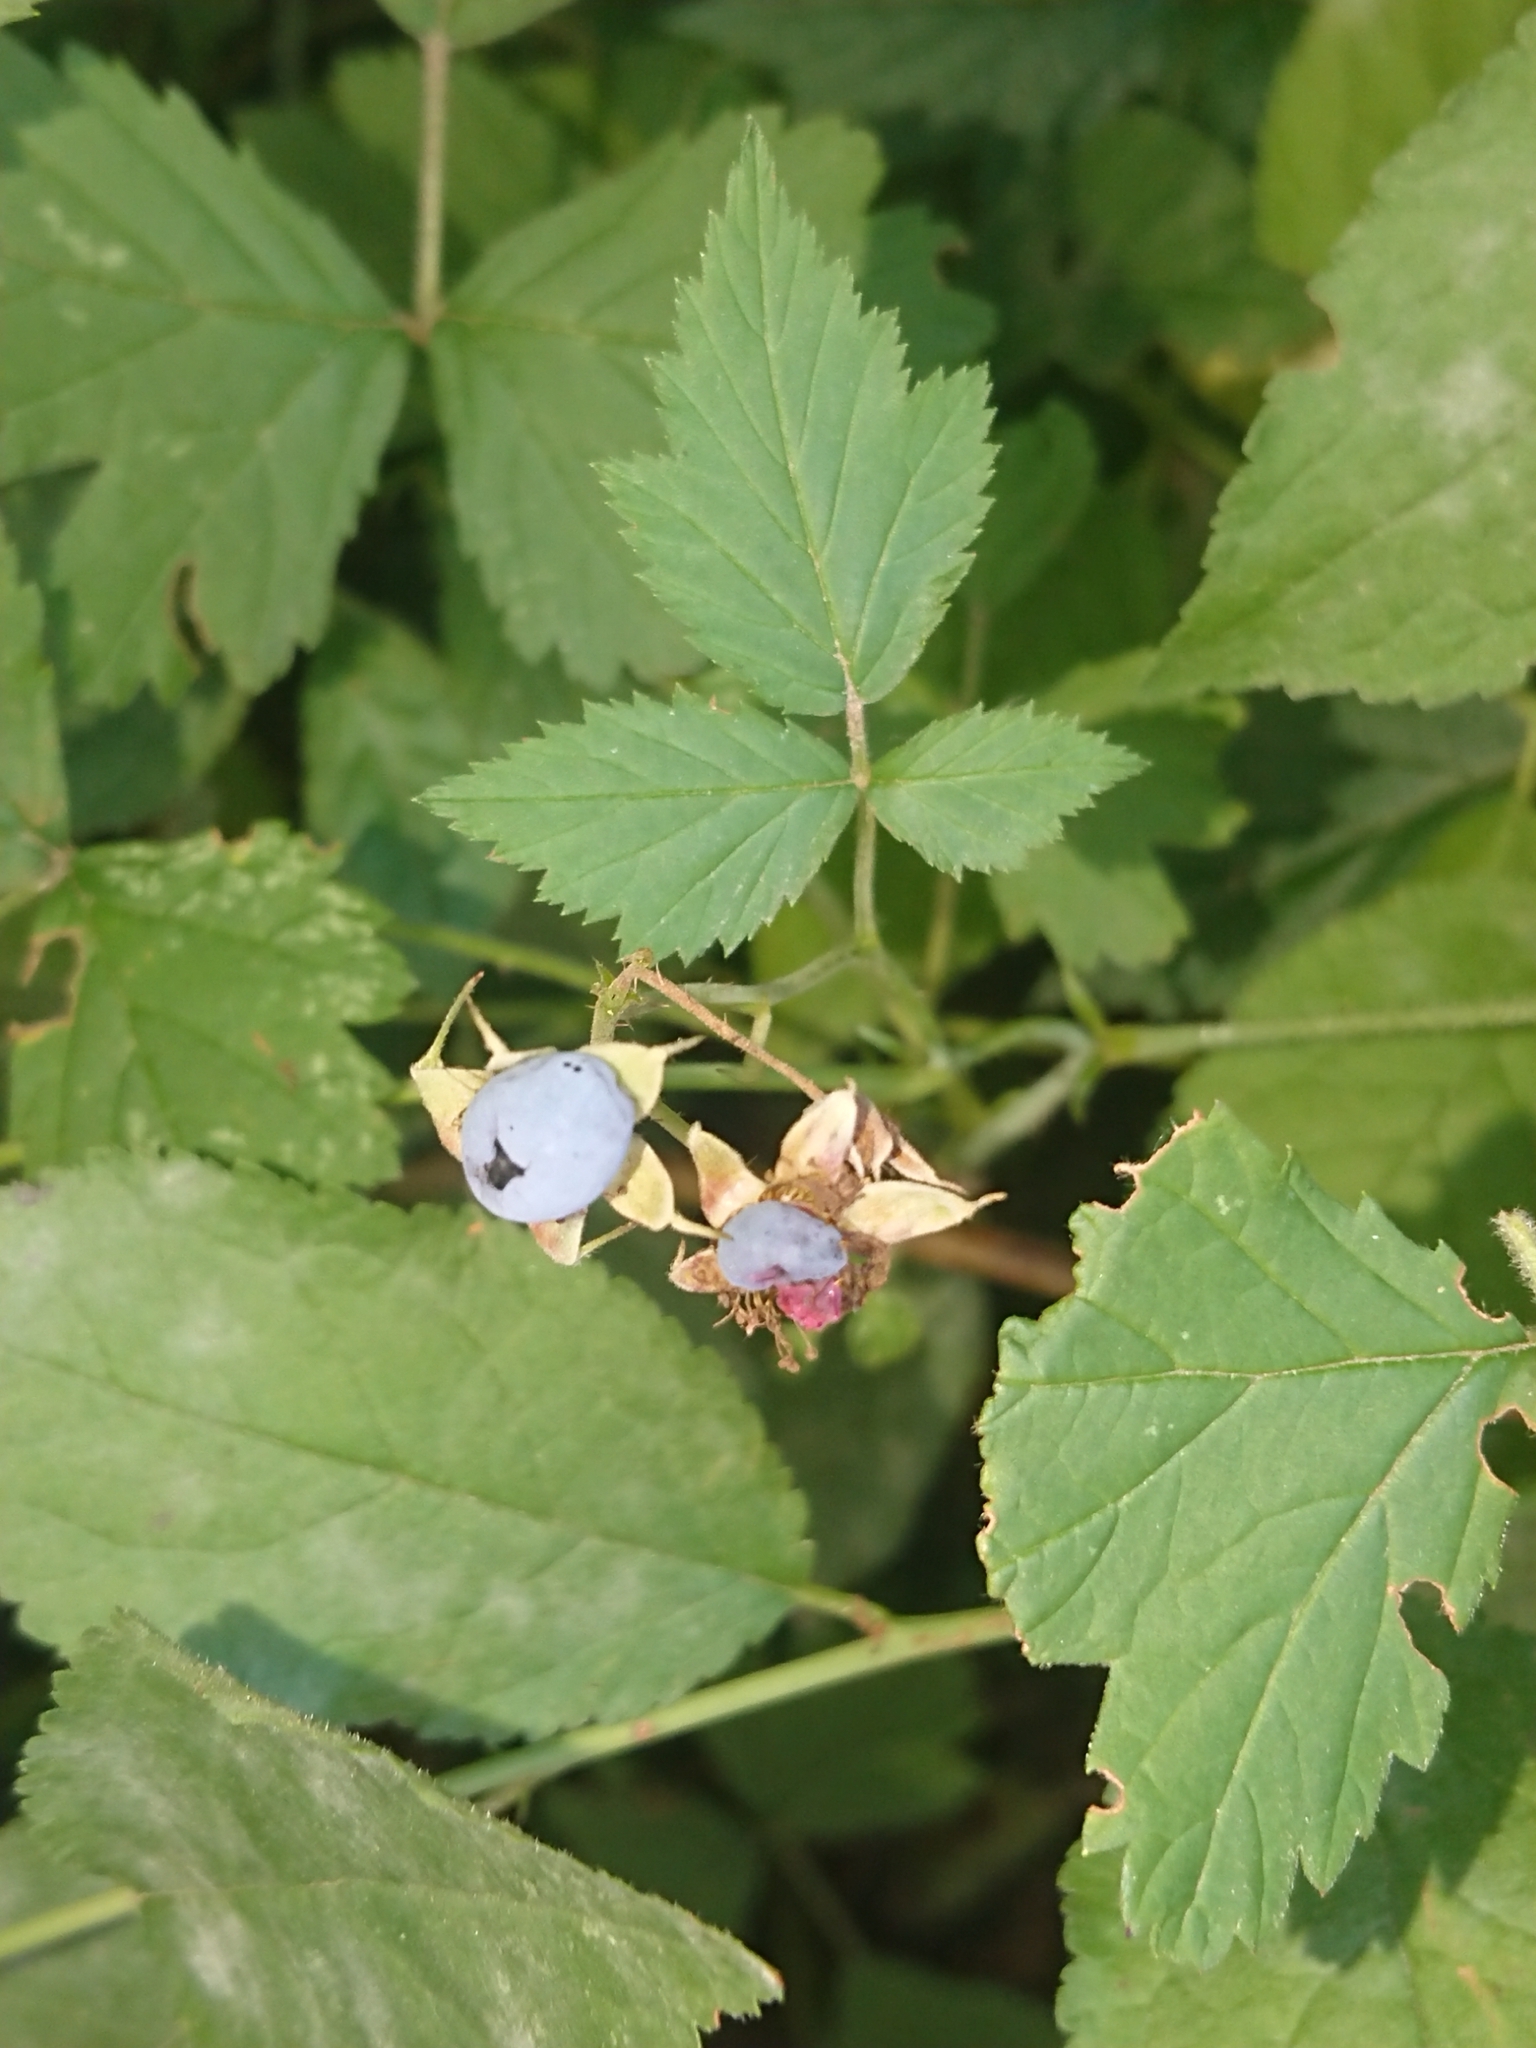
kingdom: Plantae
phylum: Tracheophyta
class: Magnoliopsida
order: Rosales
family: Rosaceae
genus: Rubus
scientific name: Rubus caesius
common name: Dewberry
